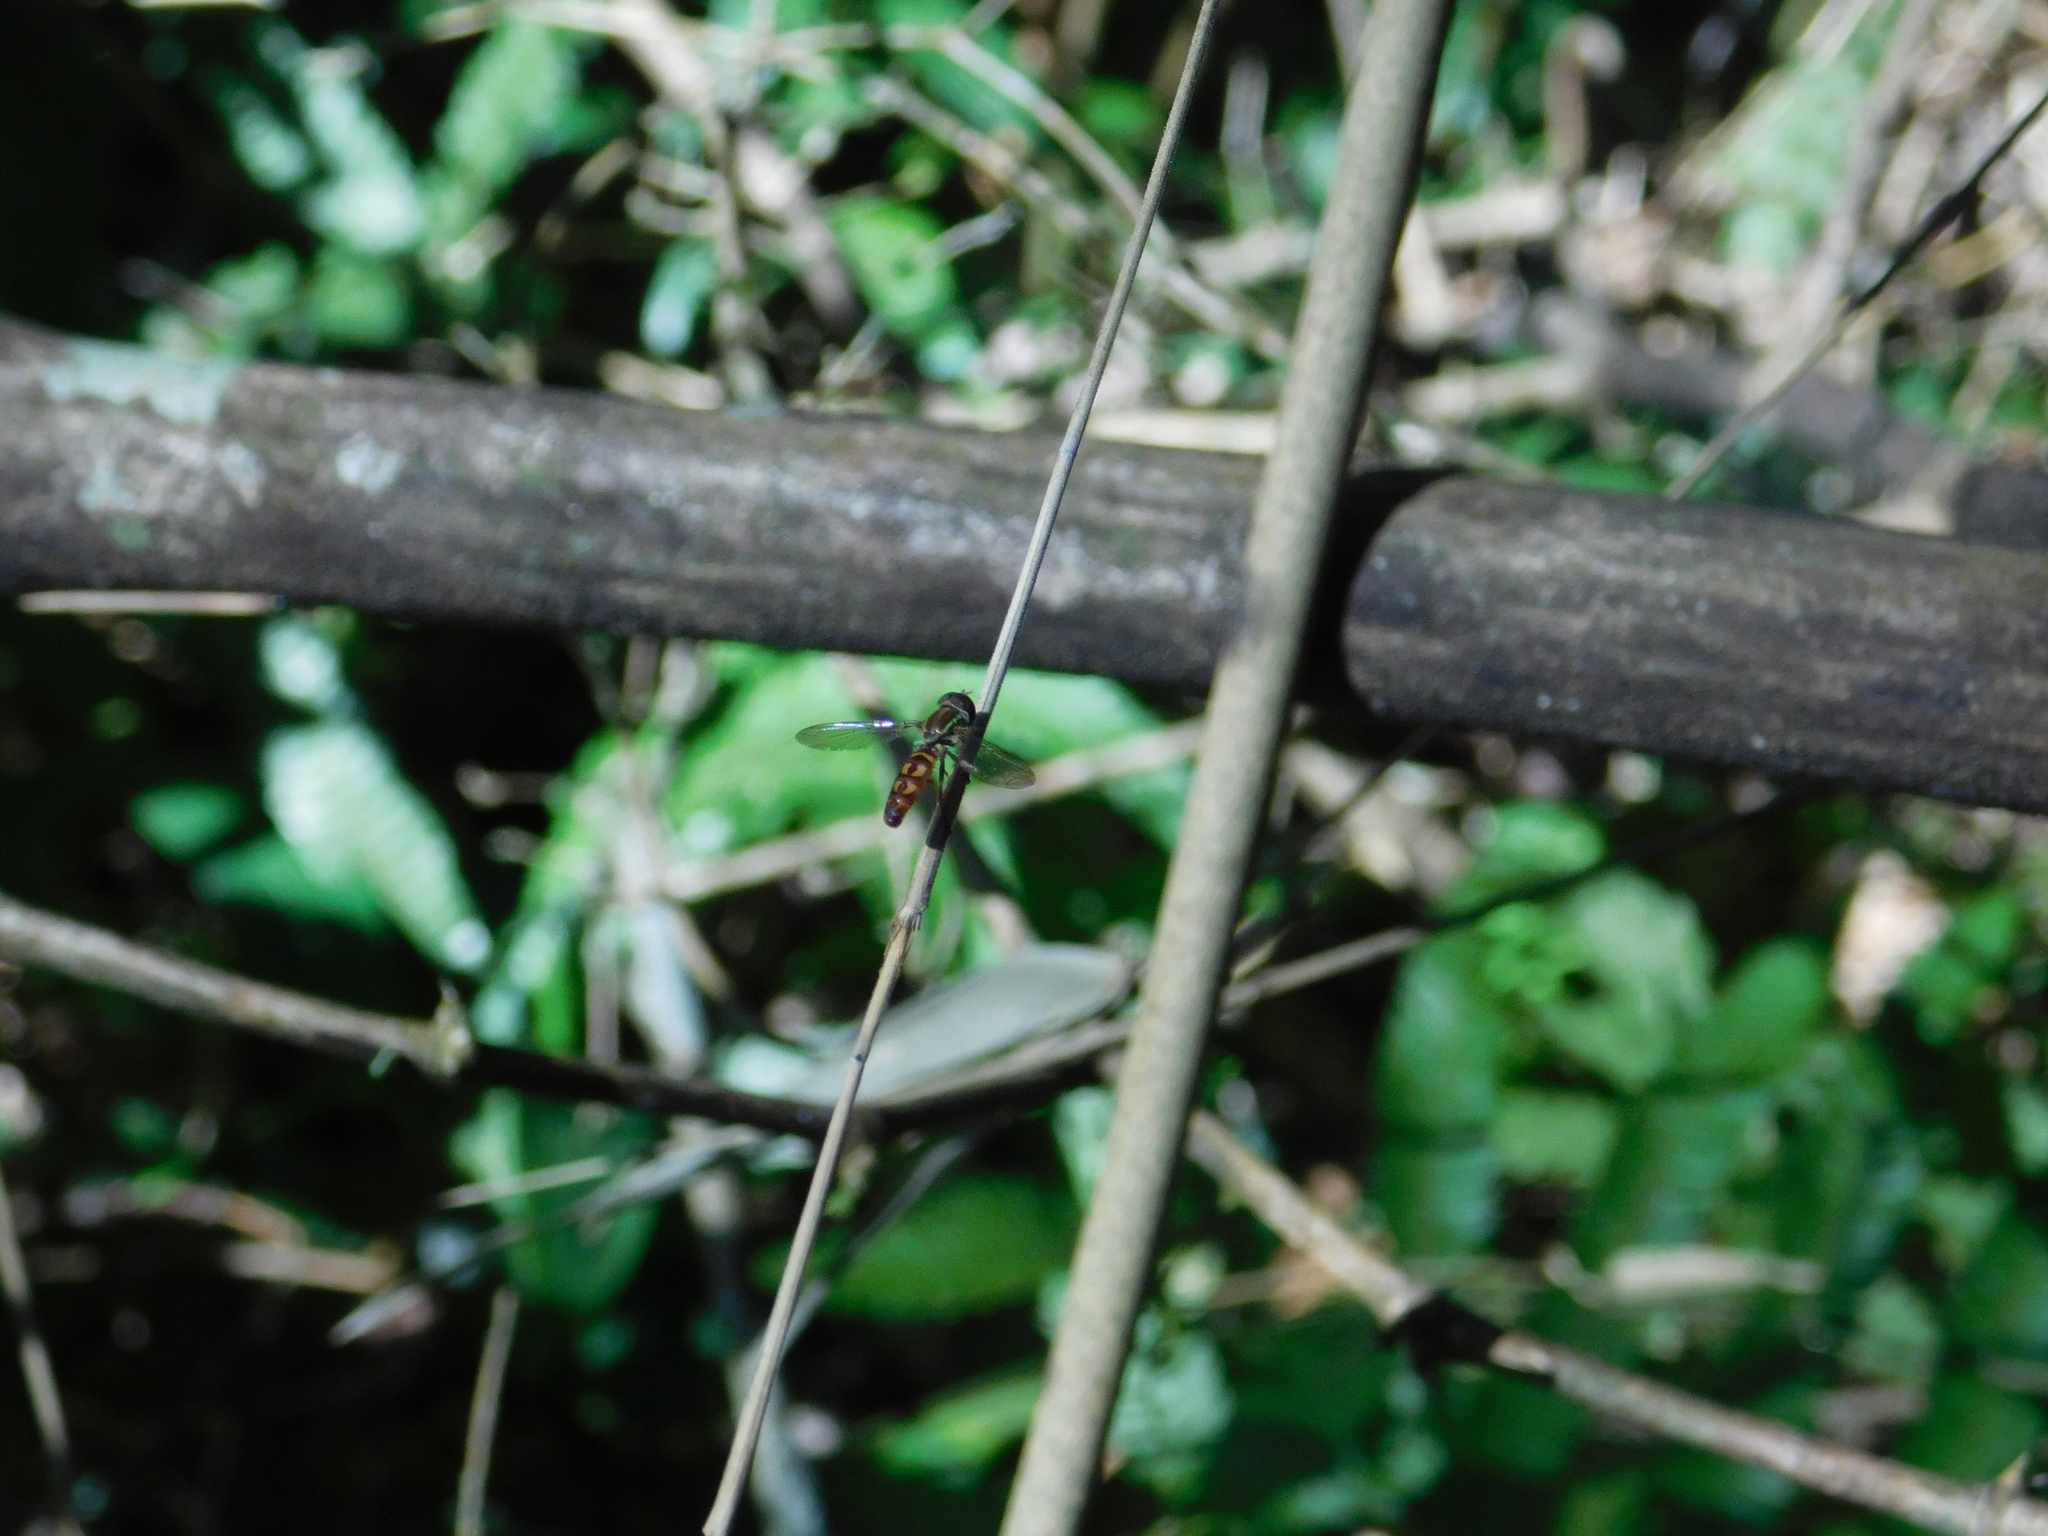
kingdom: Animalia
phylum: Arthropoda
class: Insecta
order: Diptera
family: Syrphidae
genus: Toxomerus
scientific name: Toxomerus tibicen
